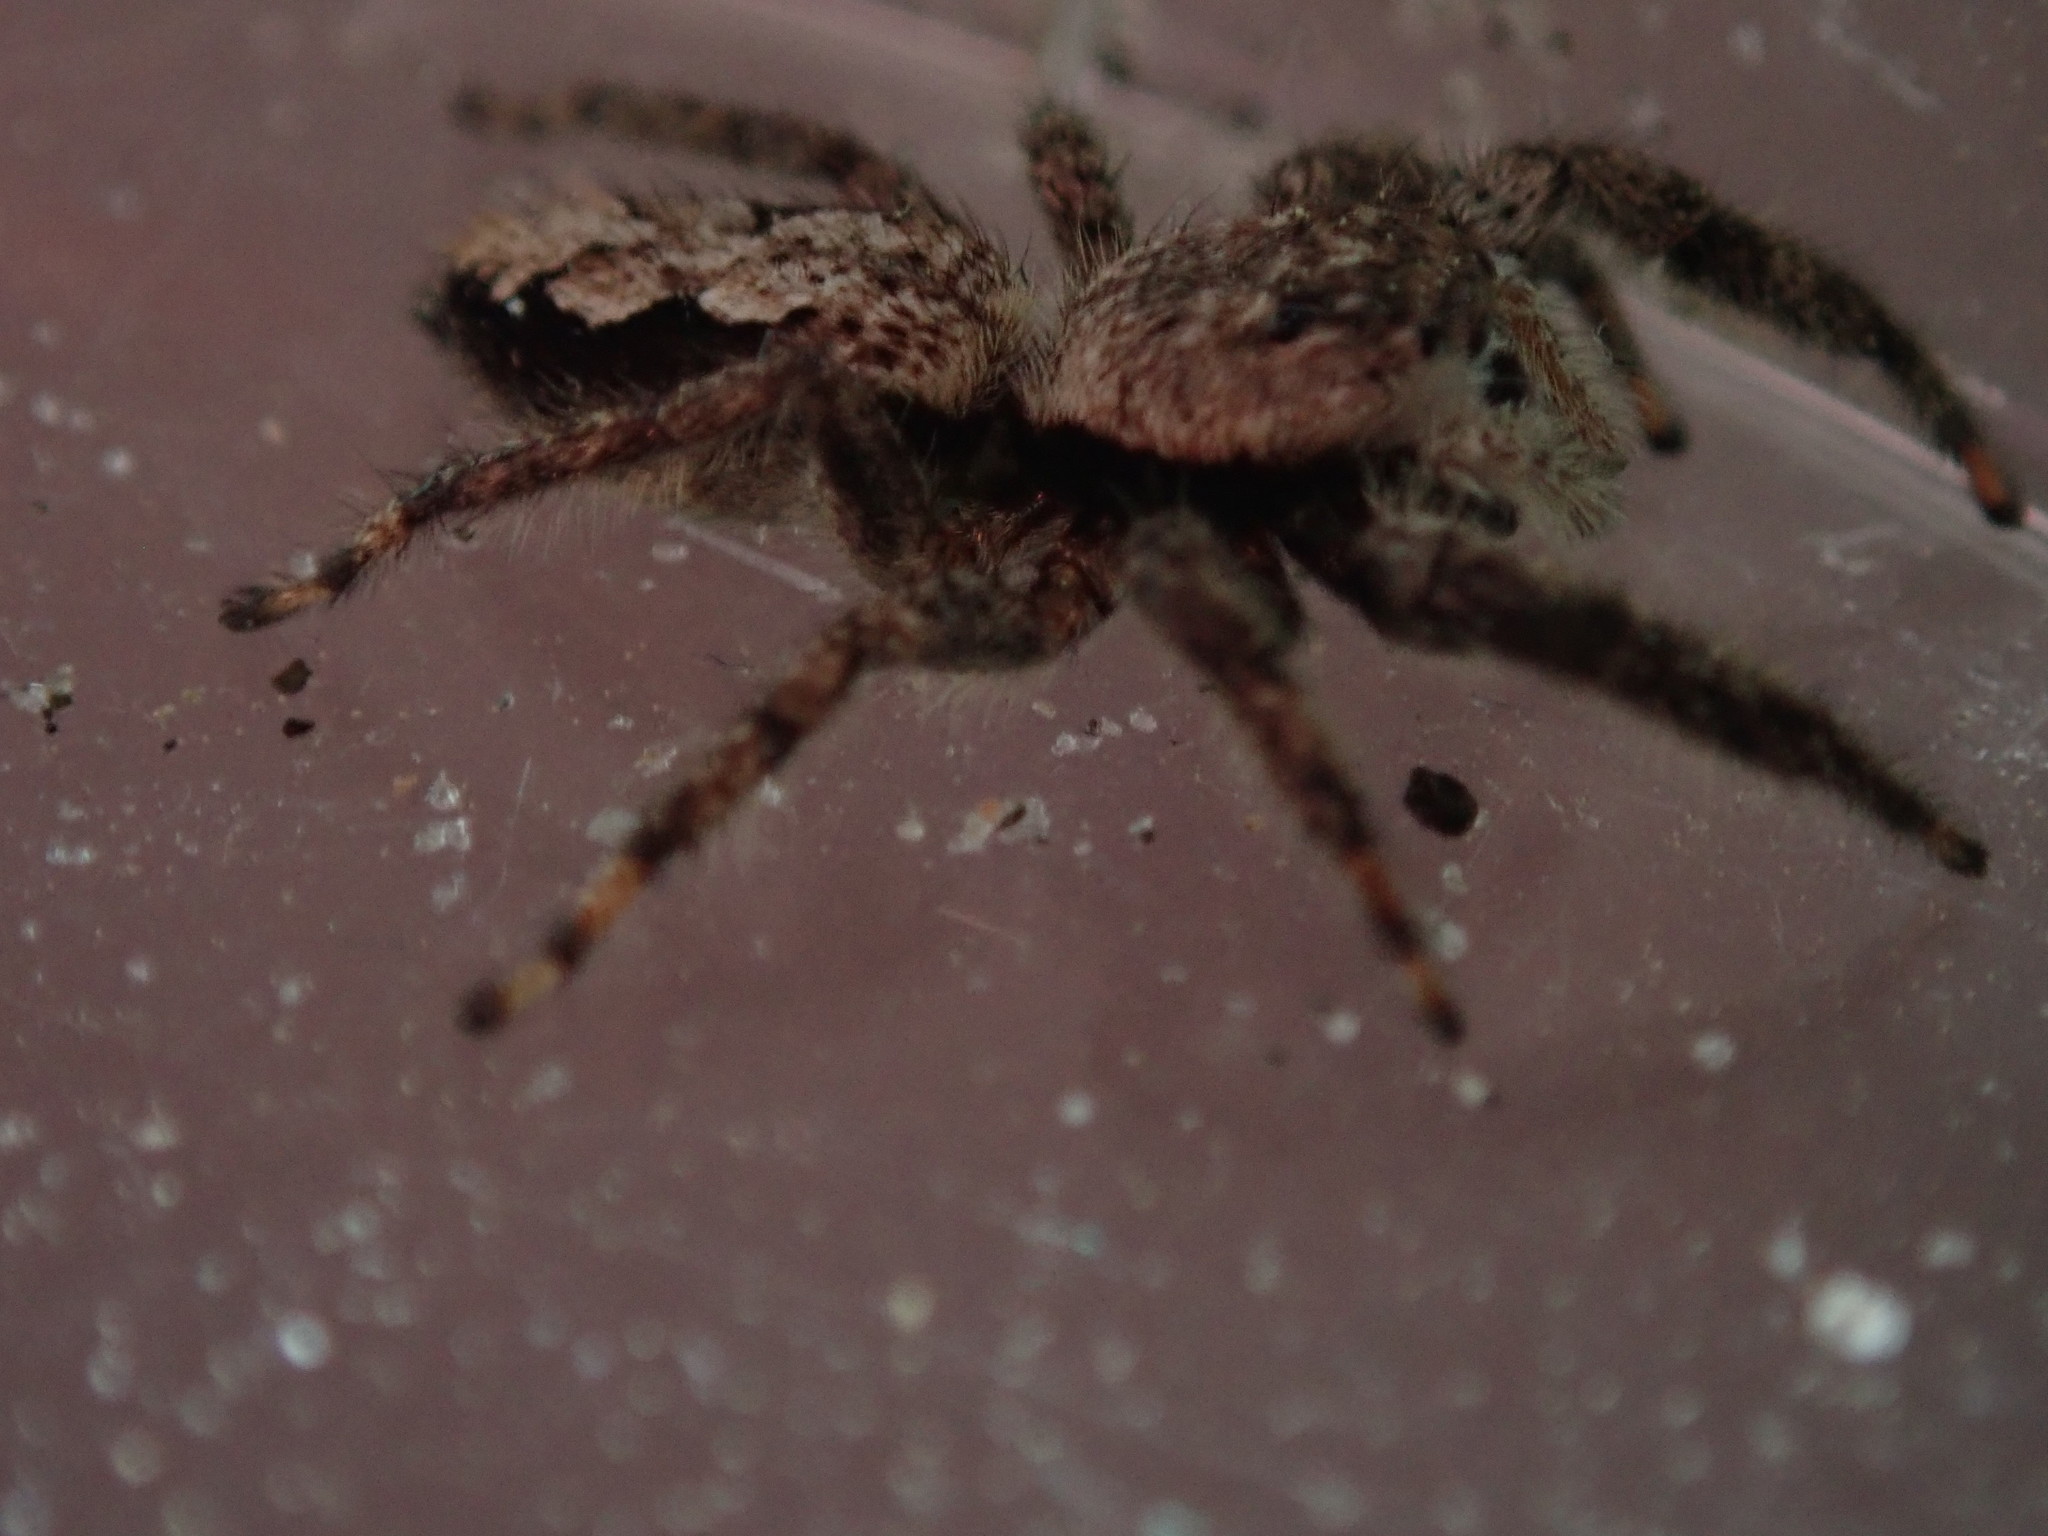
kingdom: Animalia
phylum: Arthropoda
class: Arachnida
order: Araneae
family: Salticidae
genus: Platycryptus
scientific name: Platycryptus undatus
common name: Tan jumping spider
